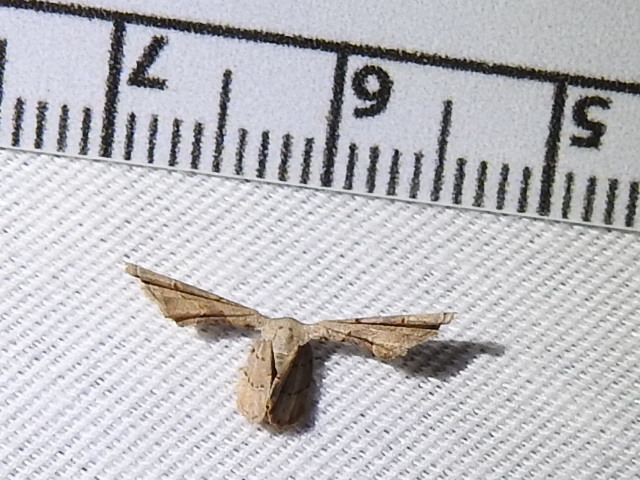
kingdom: Animalia
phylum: Arthropoda
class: Insecta
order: Lepidoptera
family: Uraniidae
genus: Antiplecta
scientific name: Antiplecta triangularis
